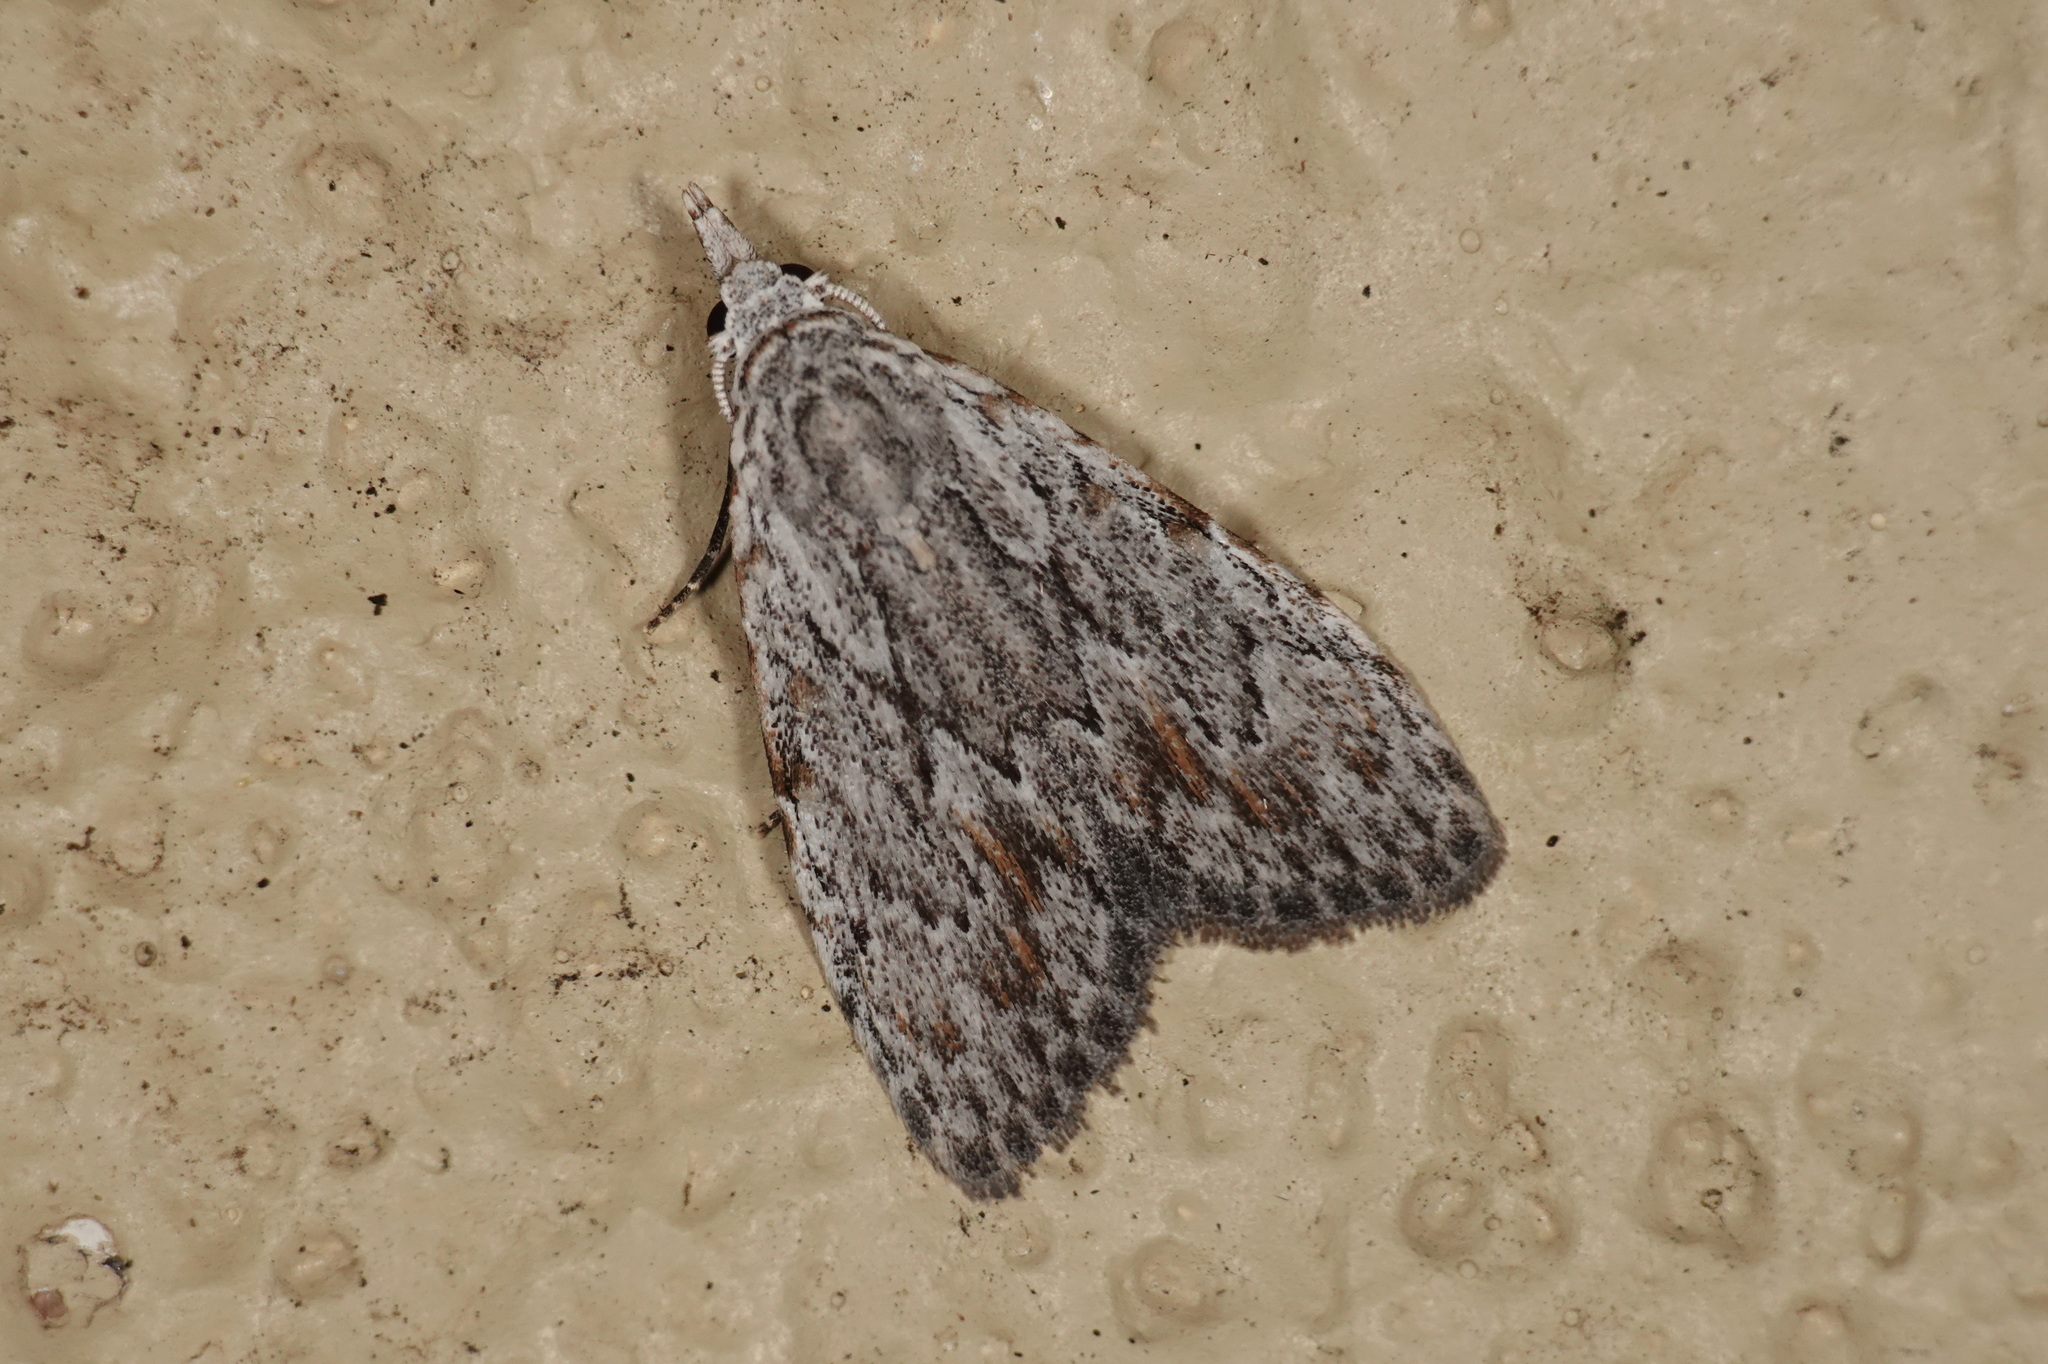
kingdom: Animalia
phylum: Arthropoda
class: Insecta
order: Lepidoptera
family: Nolidae
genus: Nola
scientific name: Nola crucigera
